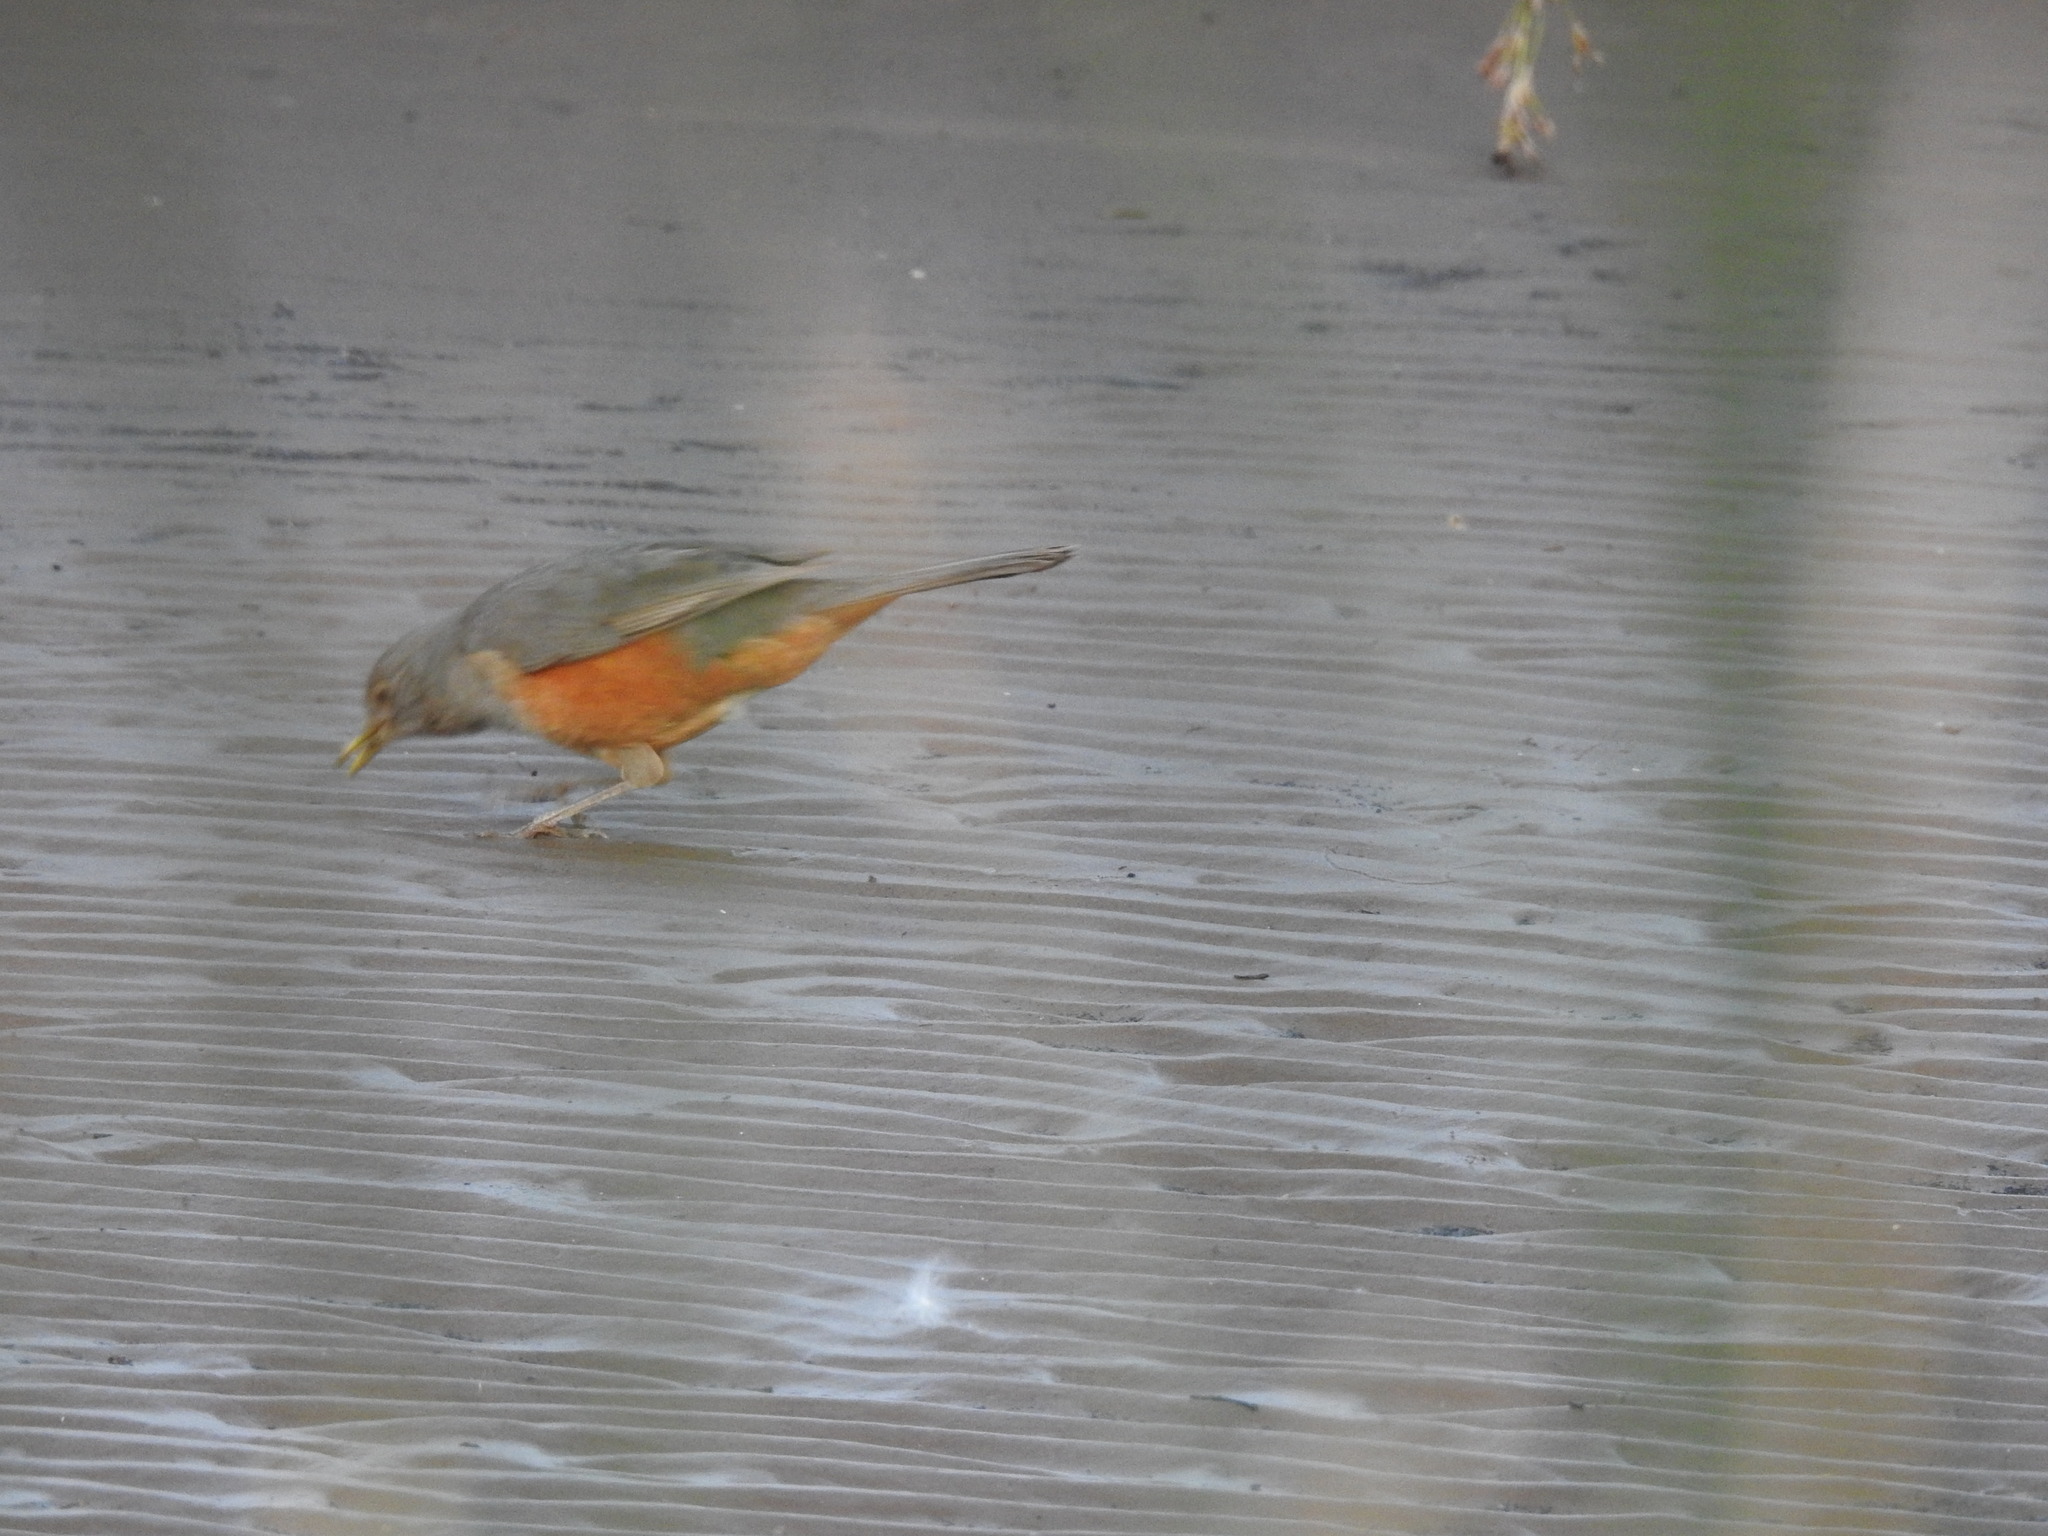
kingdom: Animalia
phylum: Chordata
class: Aves
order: Passeriformes
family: Turdidae
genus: Turdus
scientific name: Turdus rufiventris
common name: Rufous-bellied thrush
